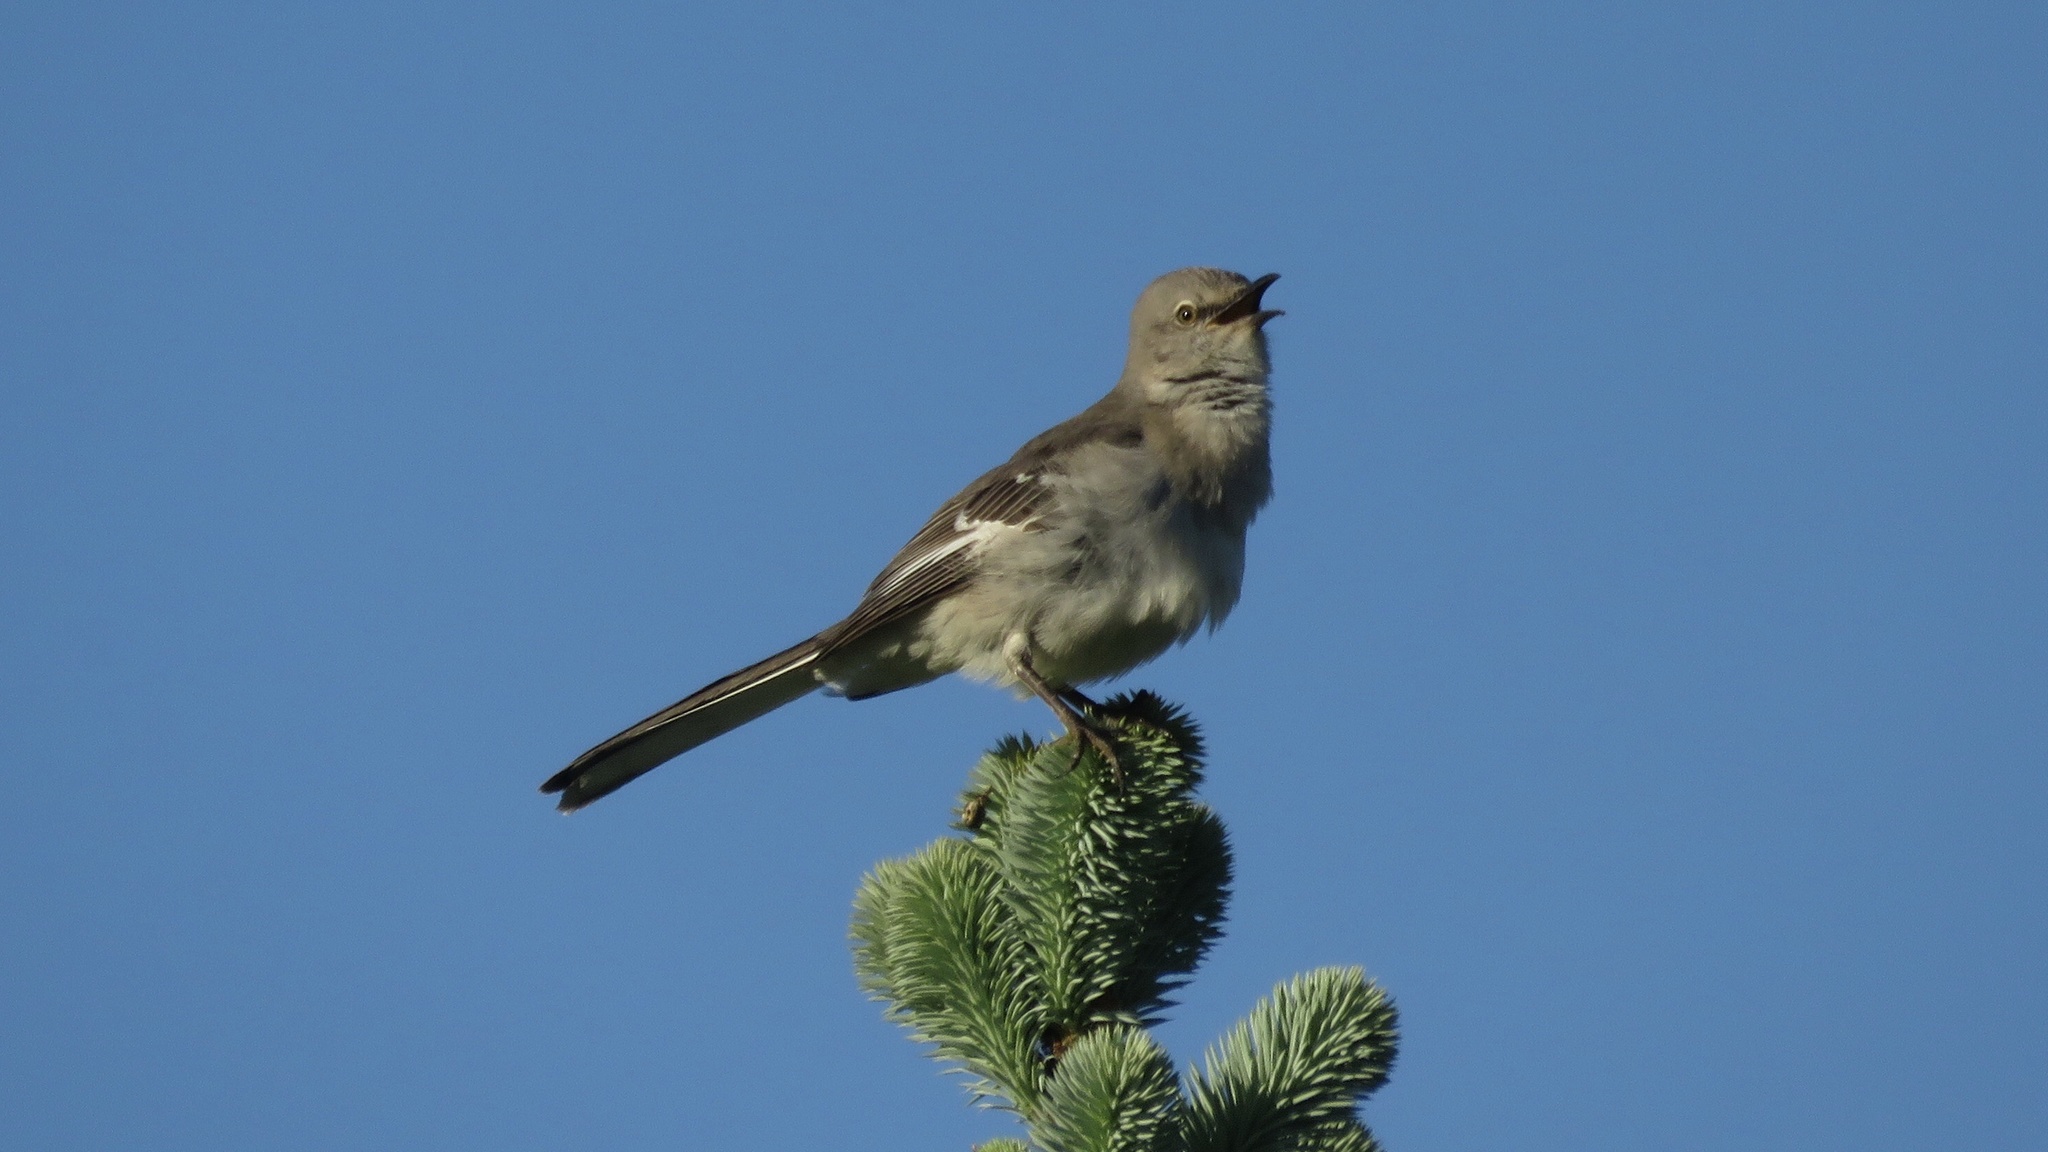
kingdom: Animalia
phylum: Chordata
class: Aves
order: Passeriformes
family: Mimidae
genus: Mimus
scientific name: Mimus polyglottos
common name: Northern mockingbird
